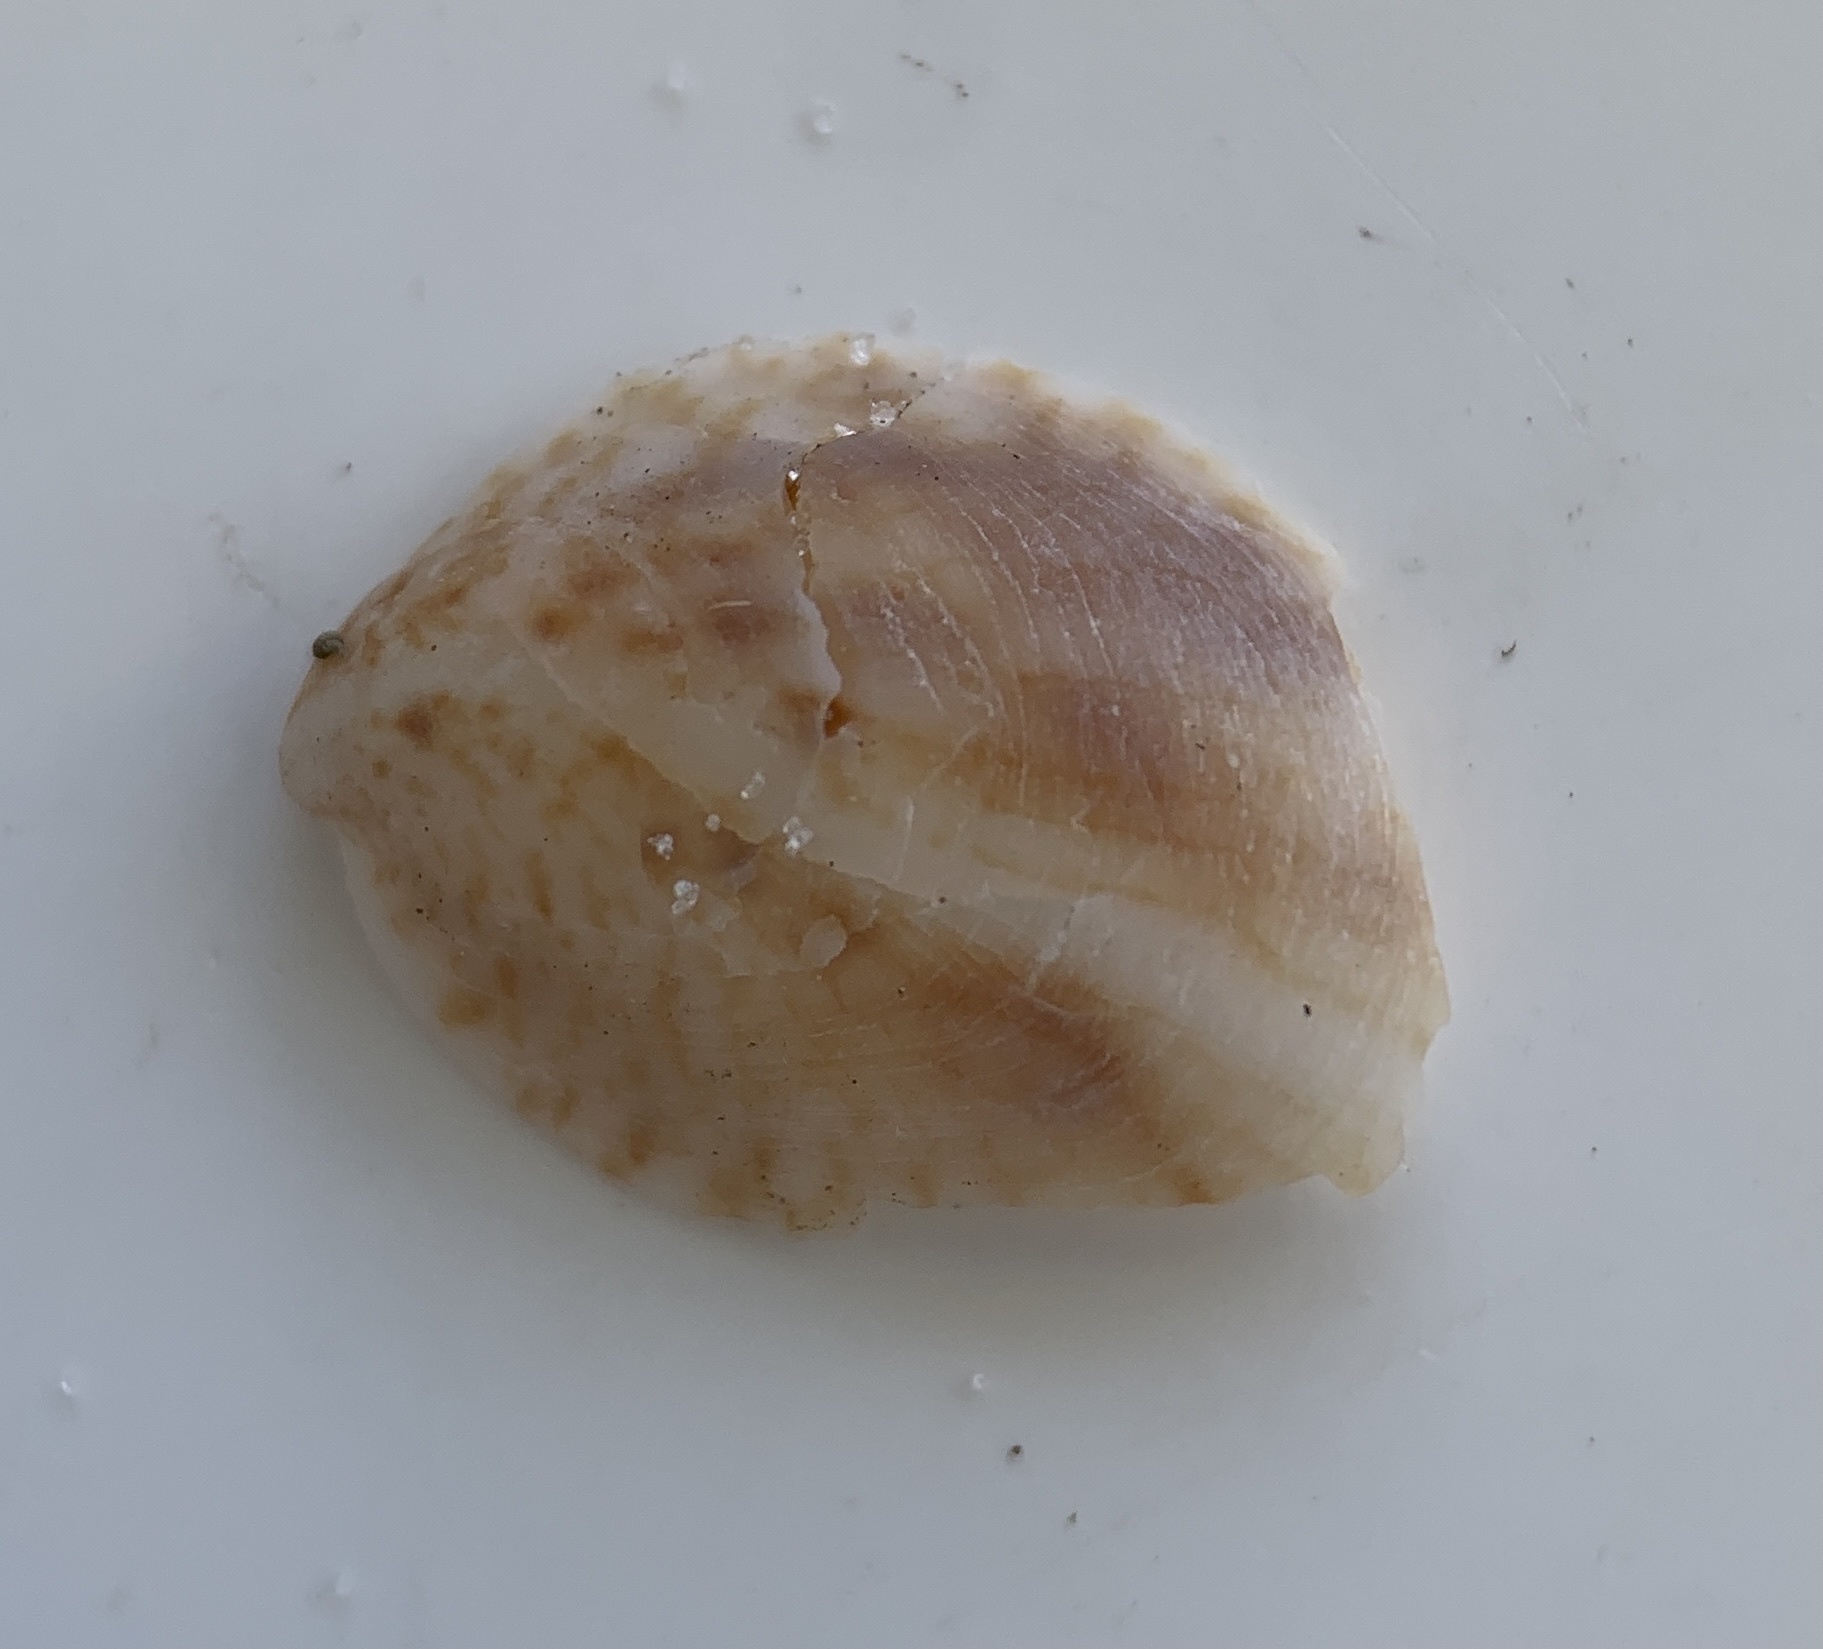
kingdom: Animalia
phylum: Mollusca
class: Gastropoda
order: Littorinimorpha
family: Calyptraeidae
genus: Crepidula
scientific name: Crepidula fornicata
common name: Slipper limpet
